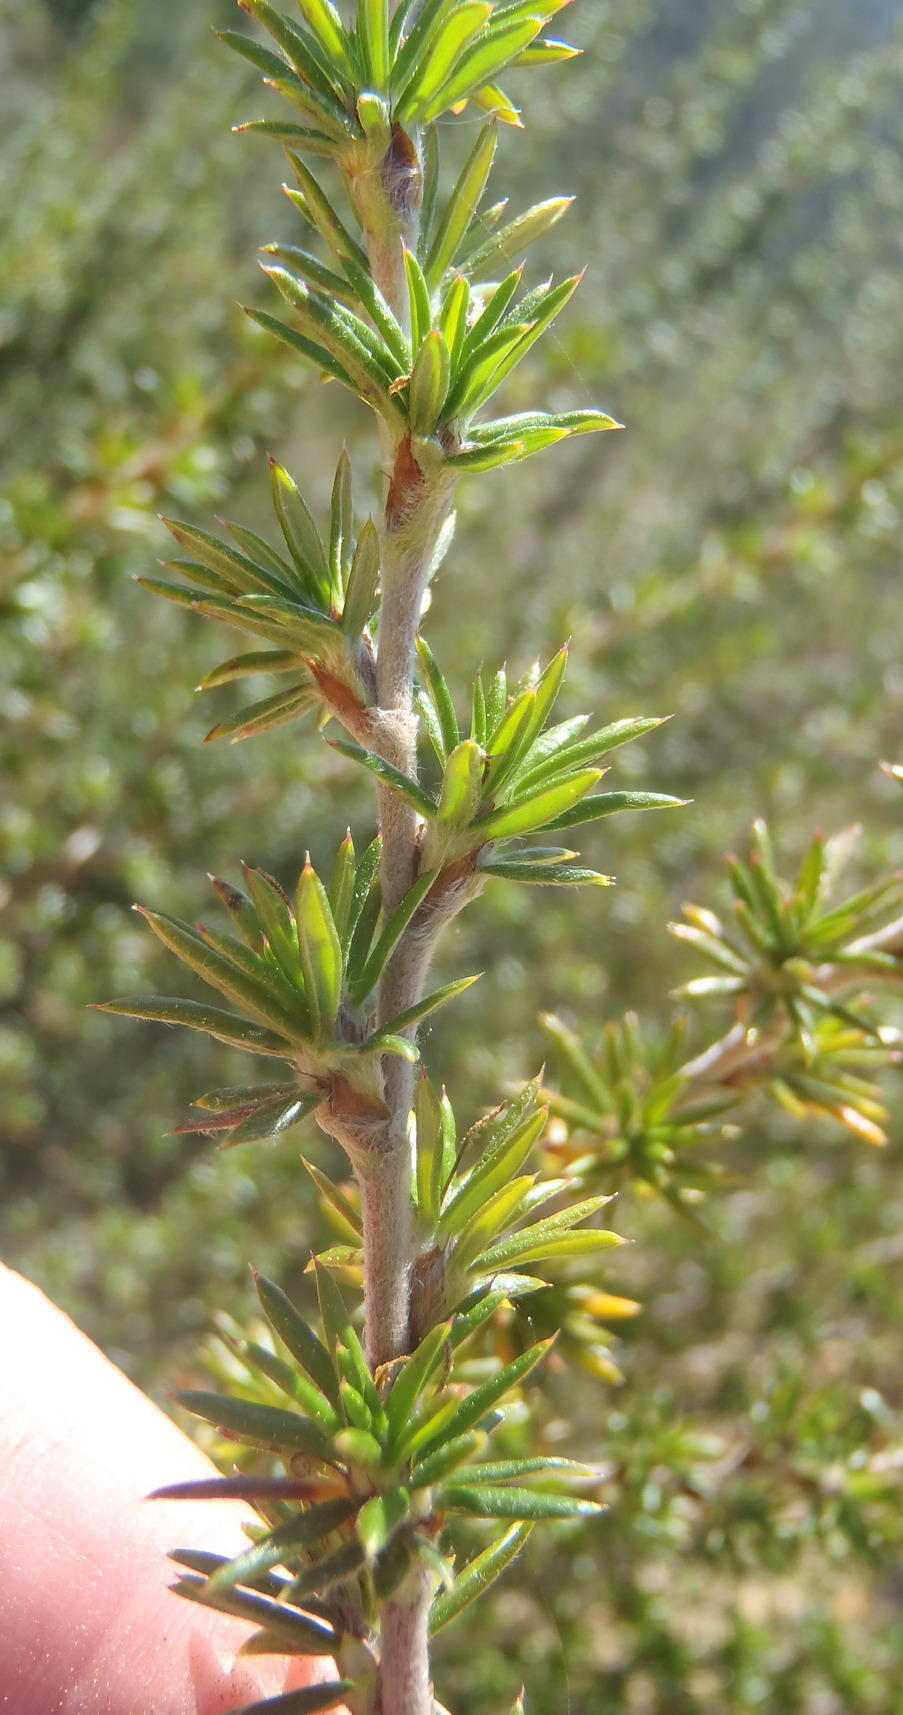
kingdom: Plantae
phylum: Tracheophyta
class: Magnoliopsida
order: Rosales
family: Rosaceae
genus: Cliffortia
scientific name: Cliffortia stricta
